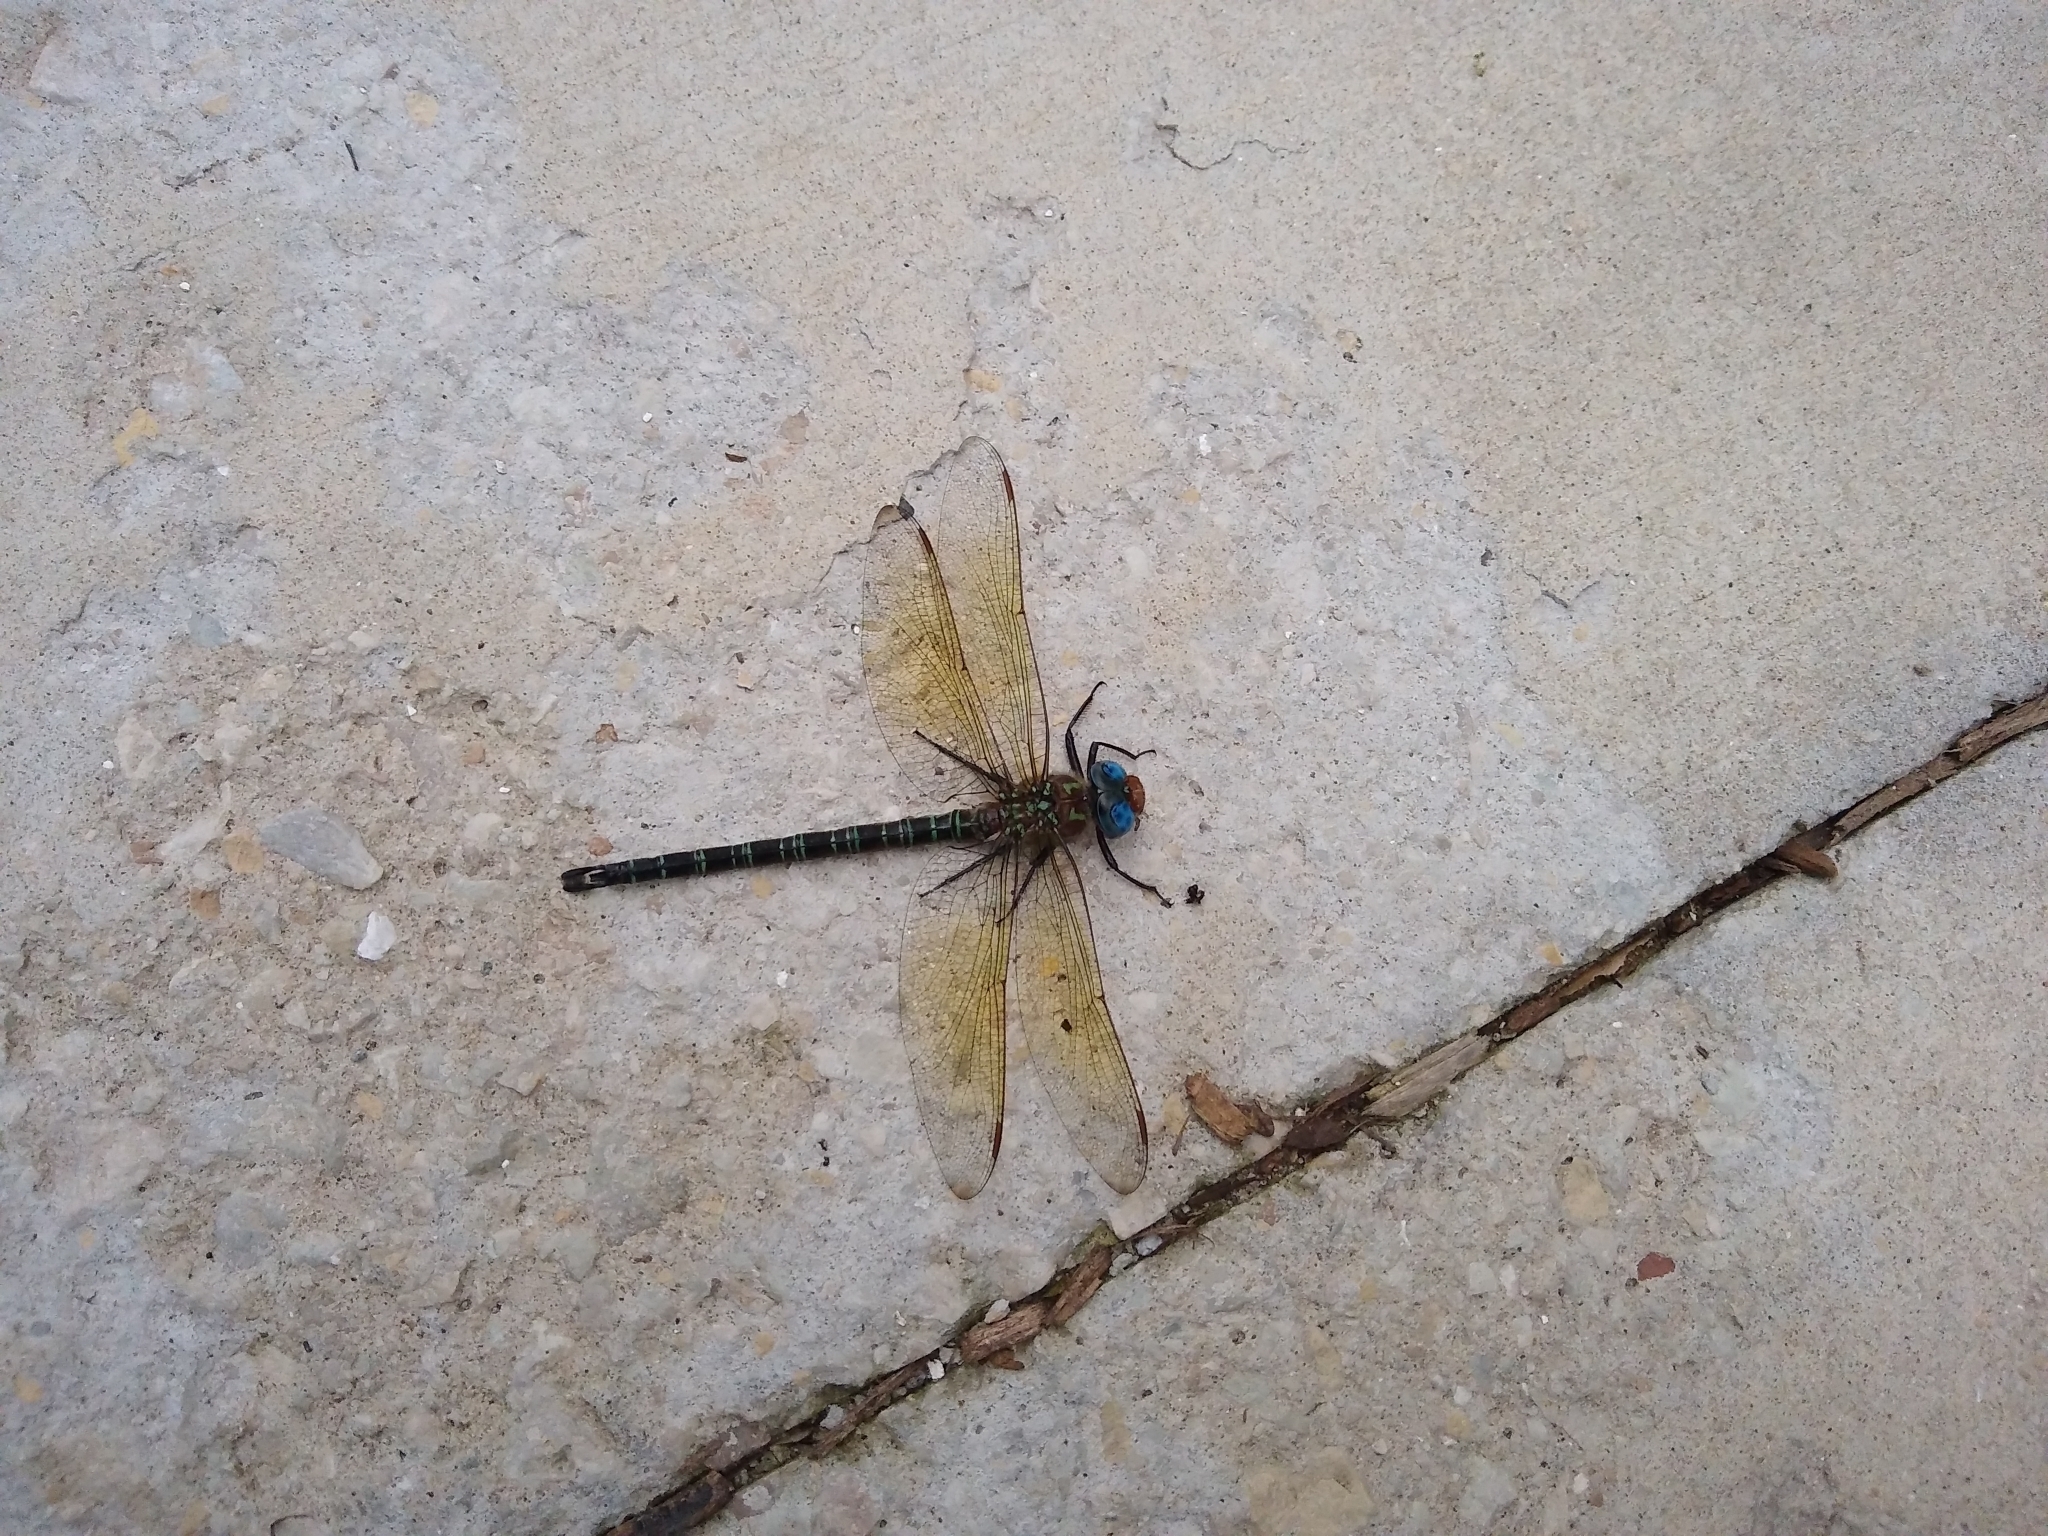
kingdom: Animalia
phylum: Arthropoda
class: Insecta
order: Odonata
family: Aeshnidae
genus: Epiaeschna
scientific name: Epiaeschna heros
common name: Swamp darner
